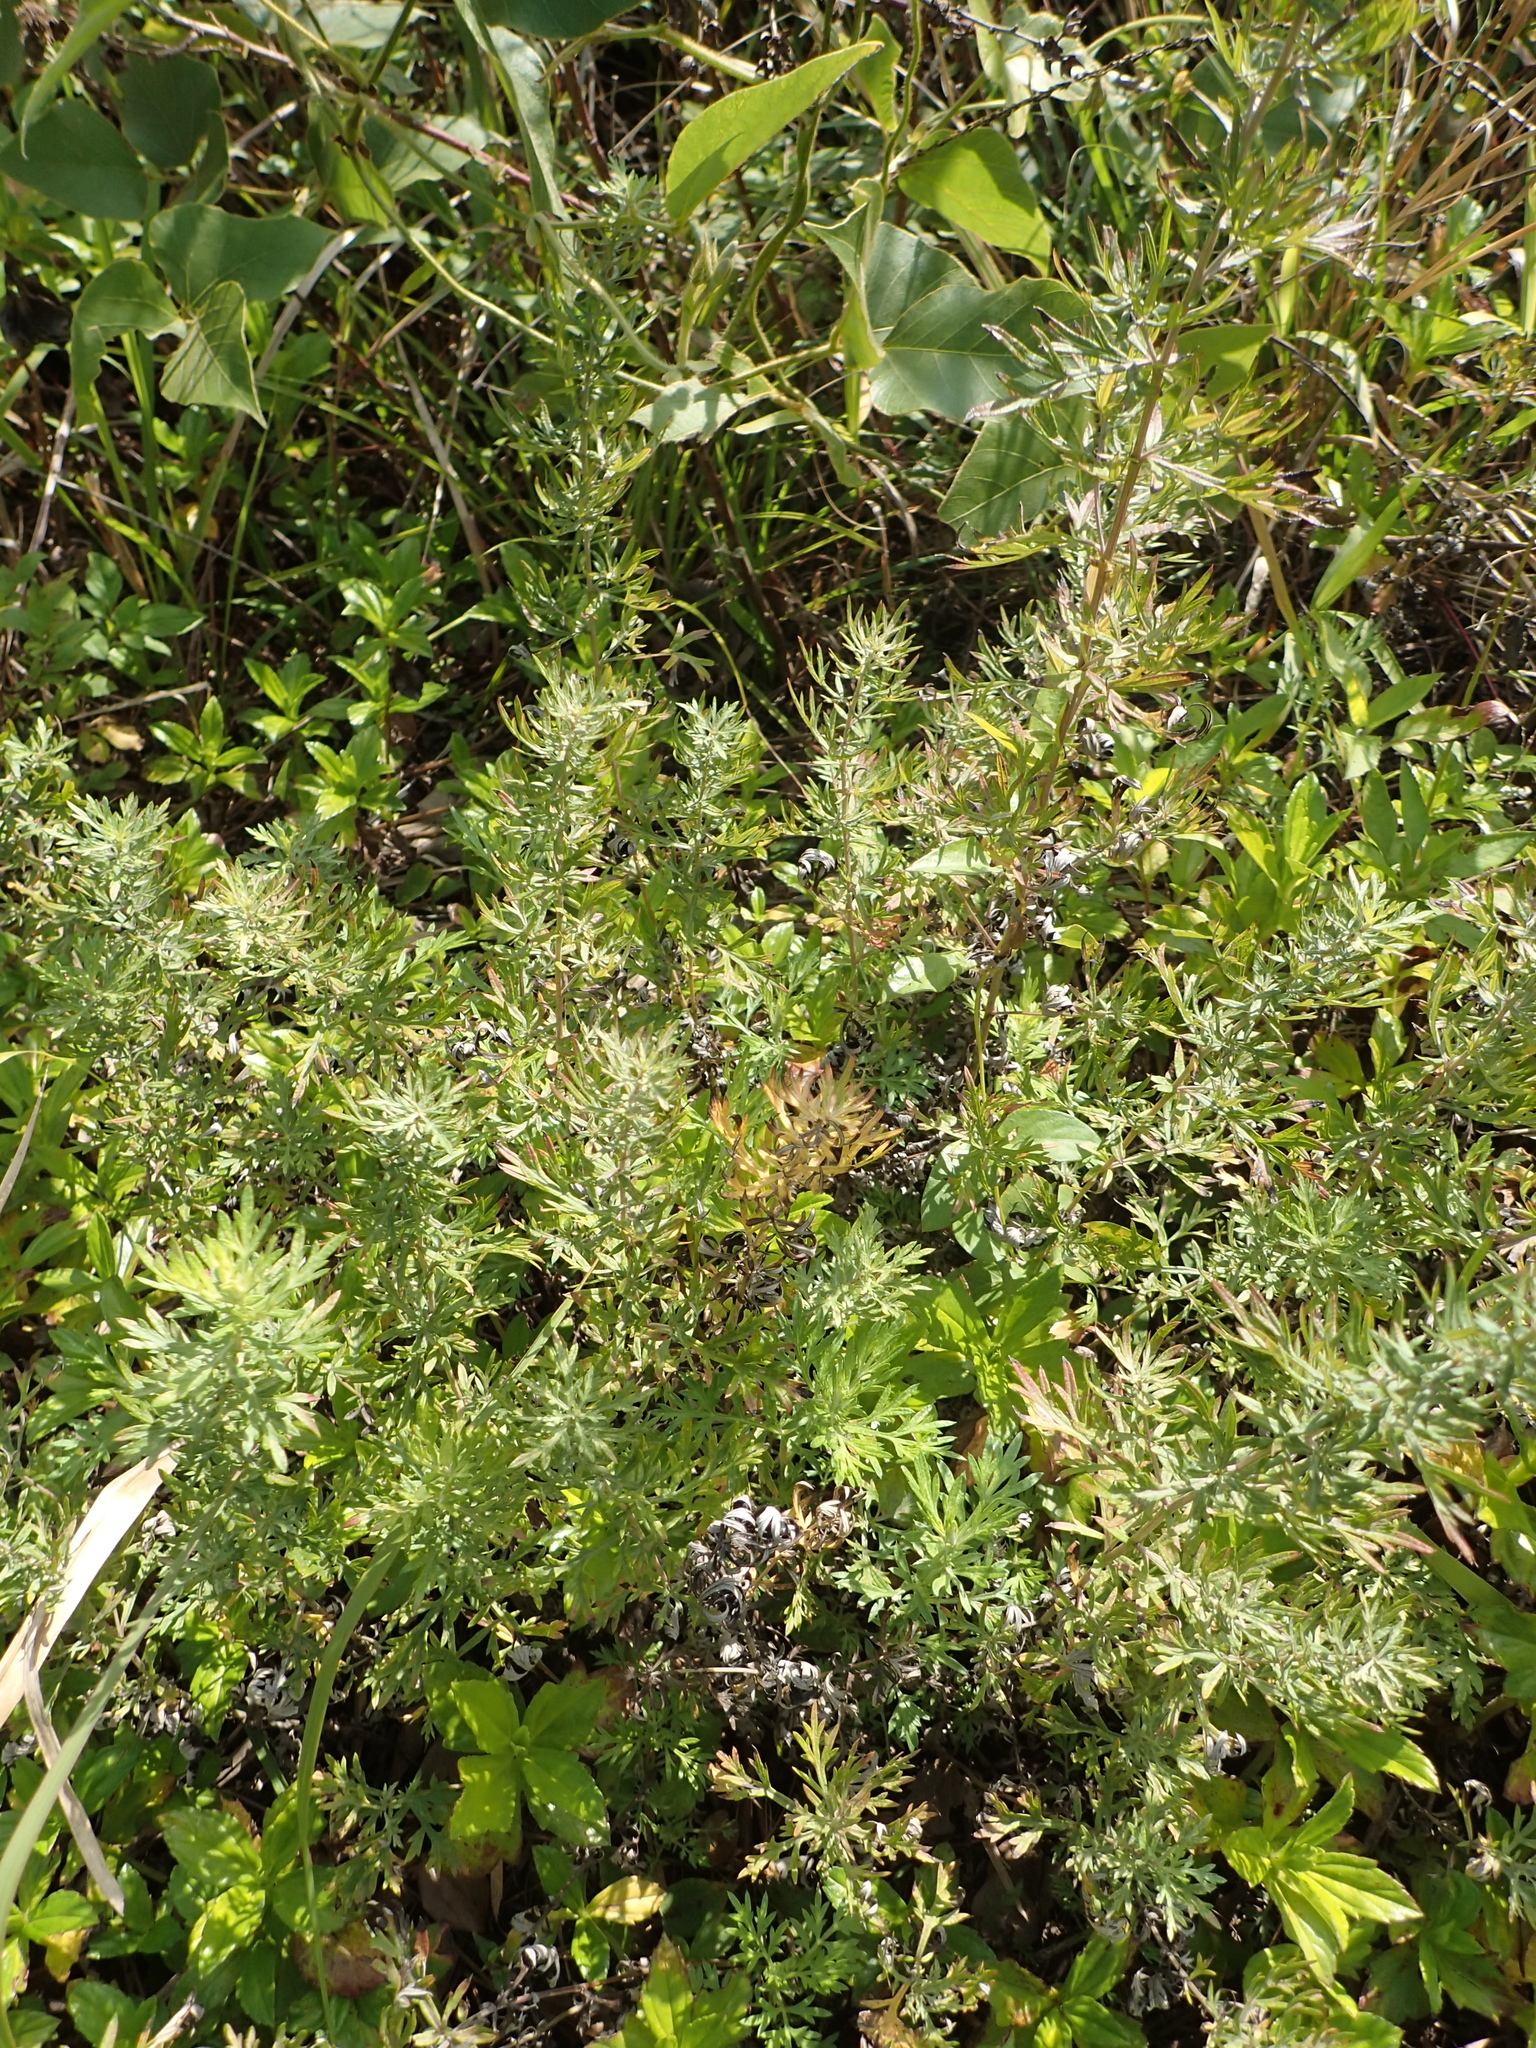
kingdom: Plantae
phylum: Tracheophyta
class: Magnoliopsida
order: Asterales
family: Asteraceae
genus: Artemisia
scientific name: Artemisia indica
